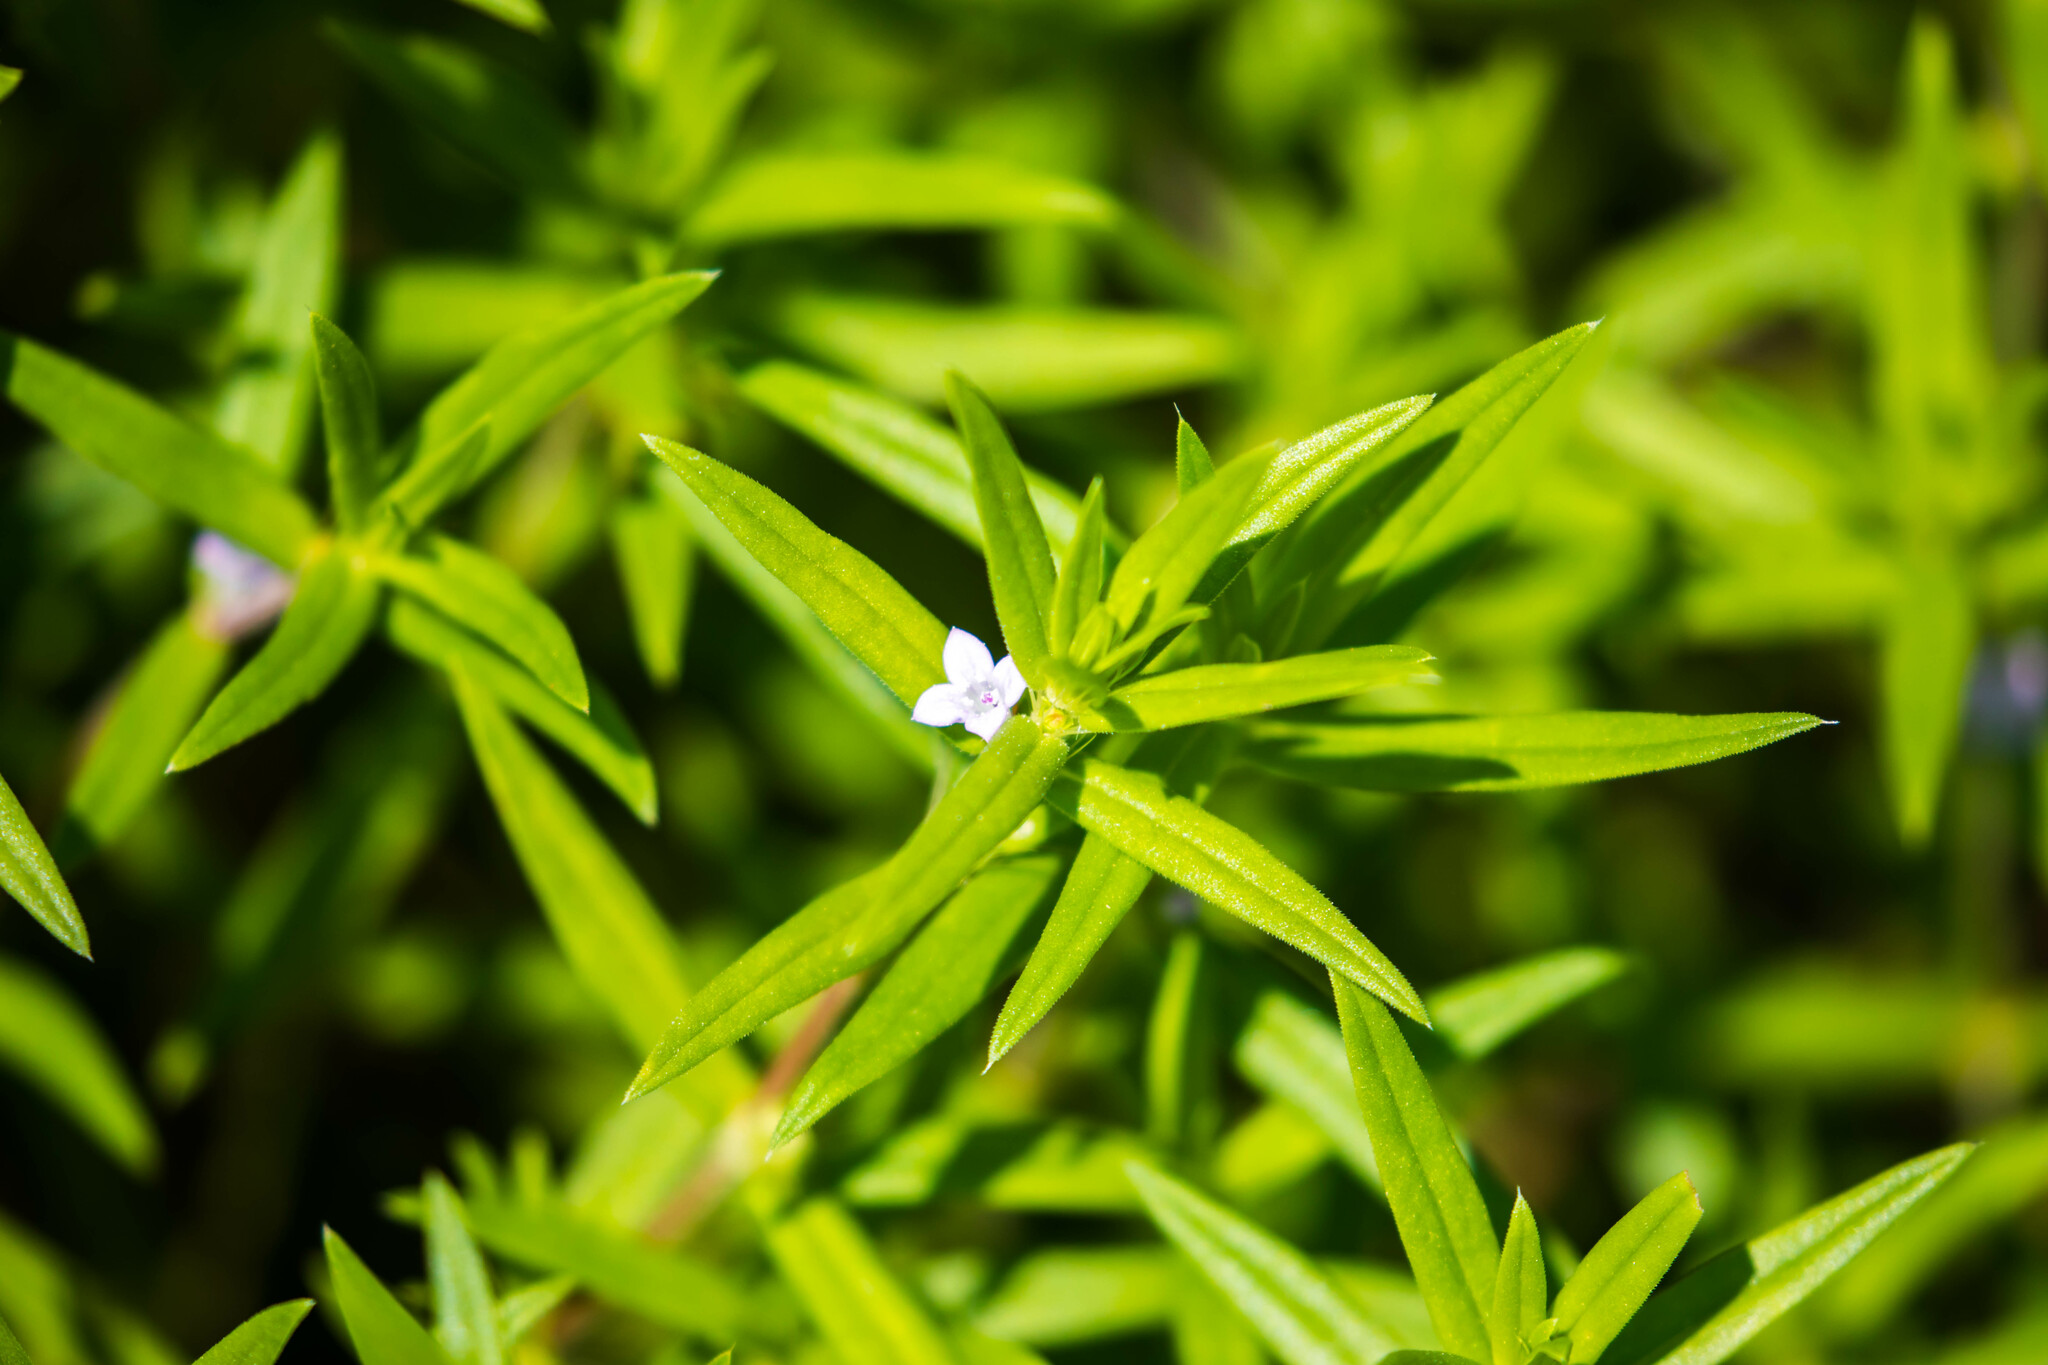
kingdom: Plantae
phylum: Tracheophyta
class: Magnoliopsida
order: Gentianales
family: Rubiaceae
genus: Hexasepalum
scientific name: Hexasepalum teres
